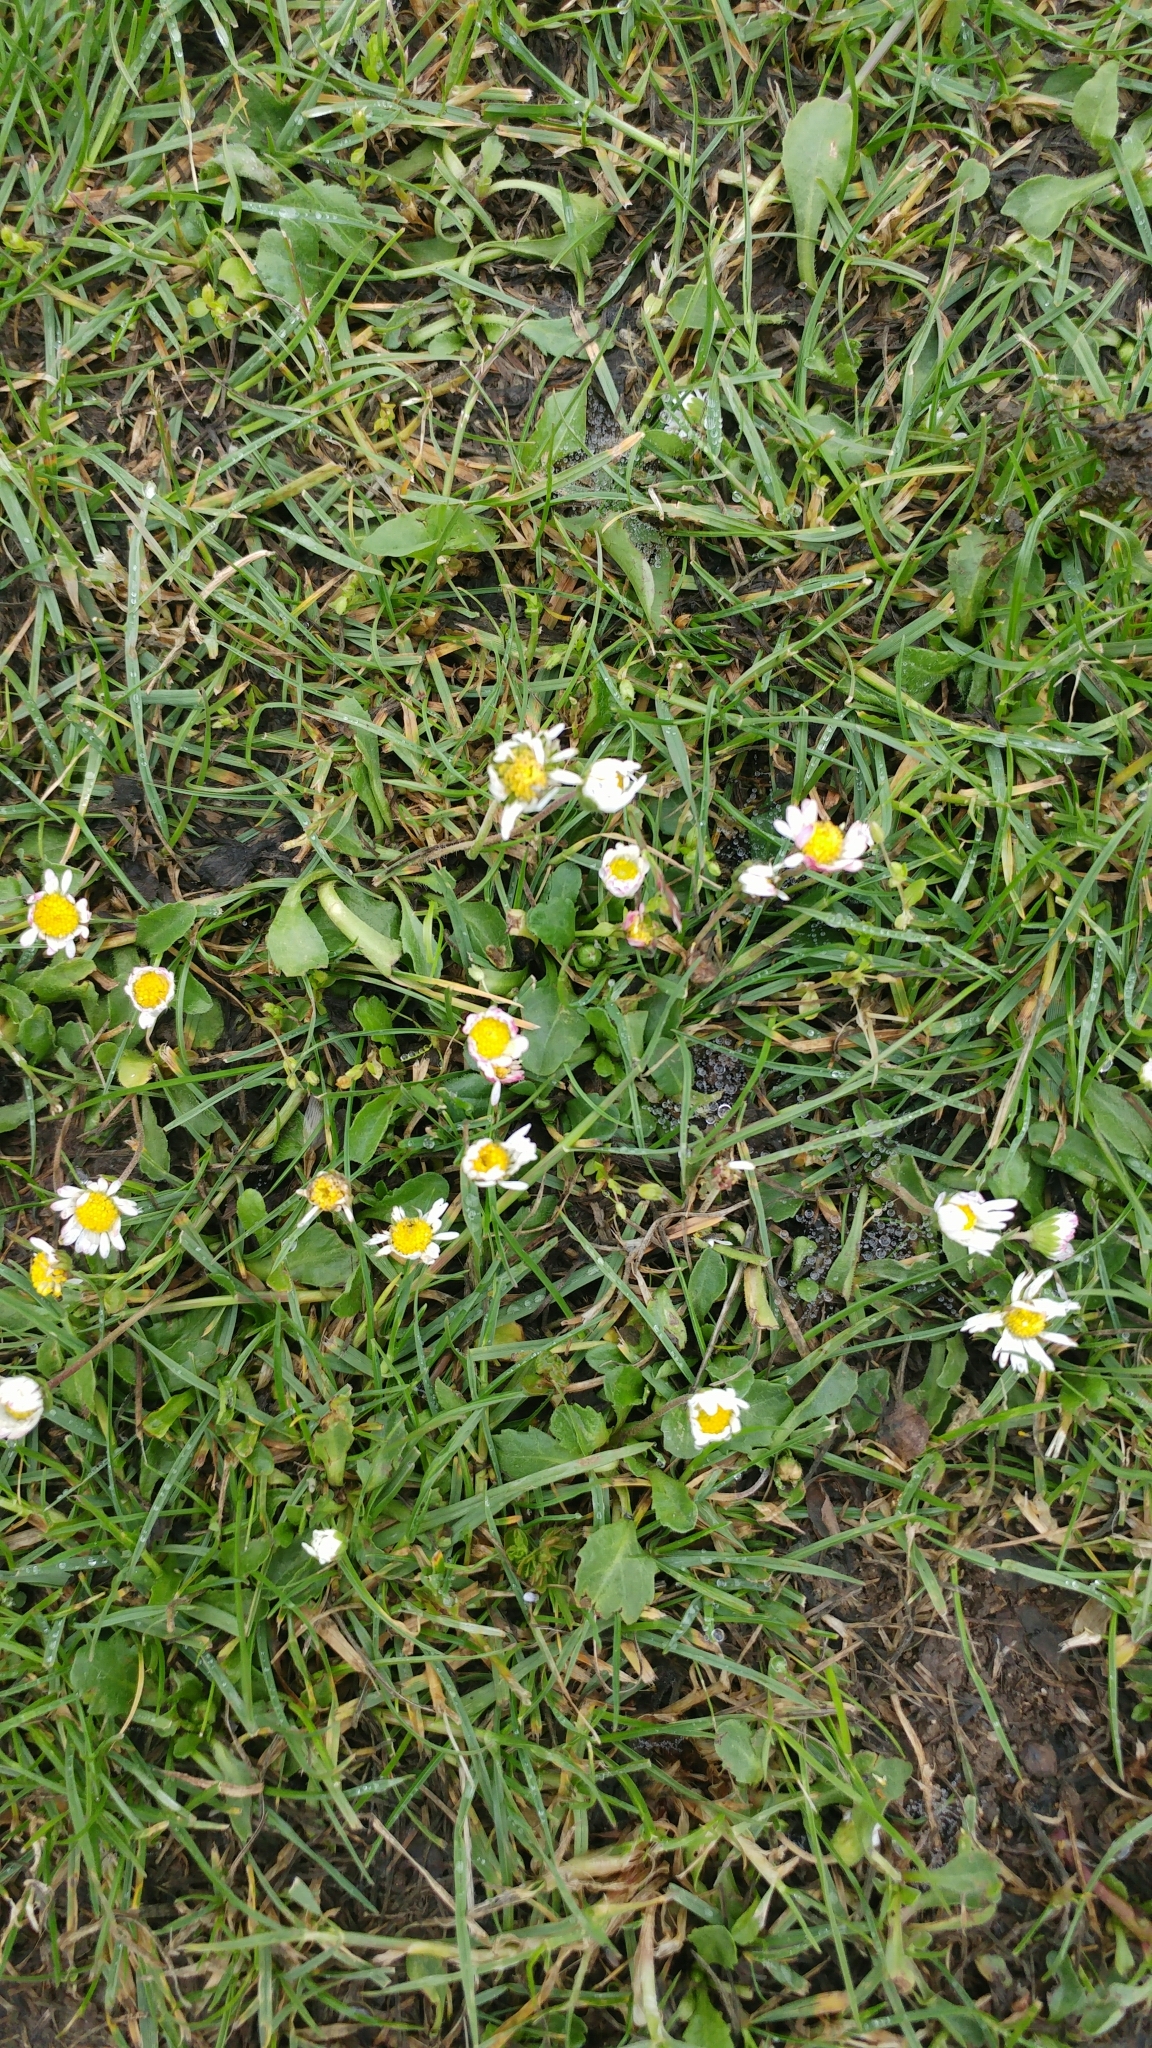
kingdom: Plantae
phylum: Tracheophyta
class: Magnoliopsida
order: Asterales
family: Asteraceae
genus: Bellis
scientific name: Bellis perennis
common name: Lawndaisy
